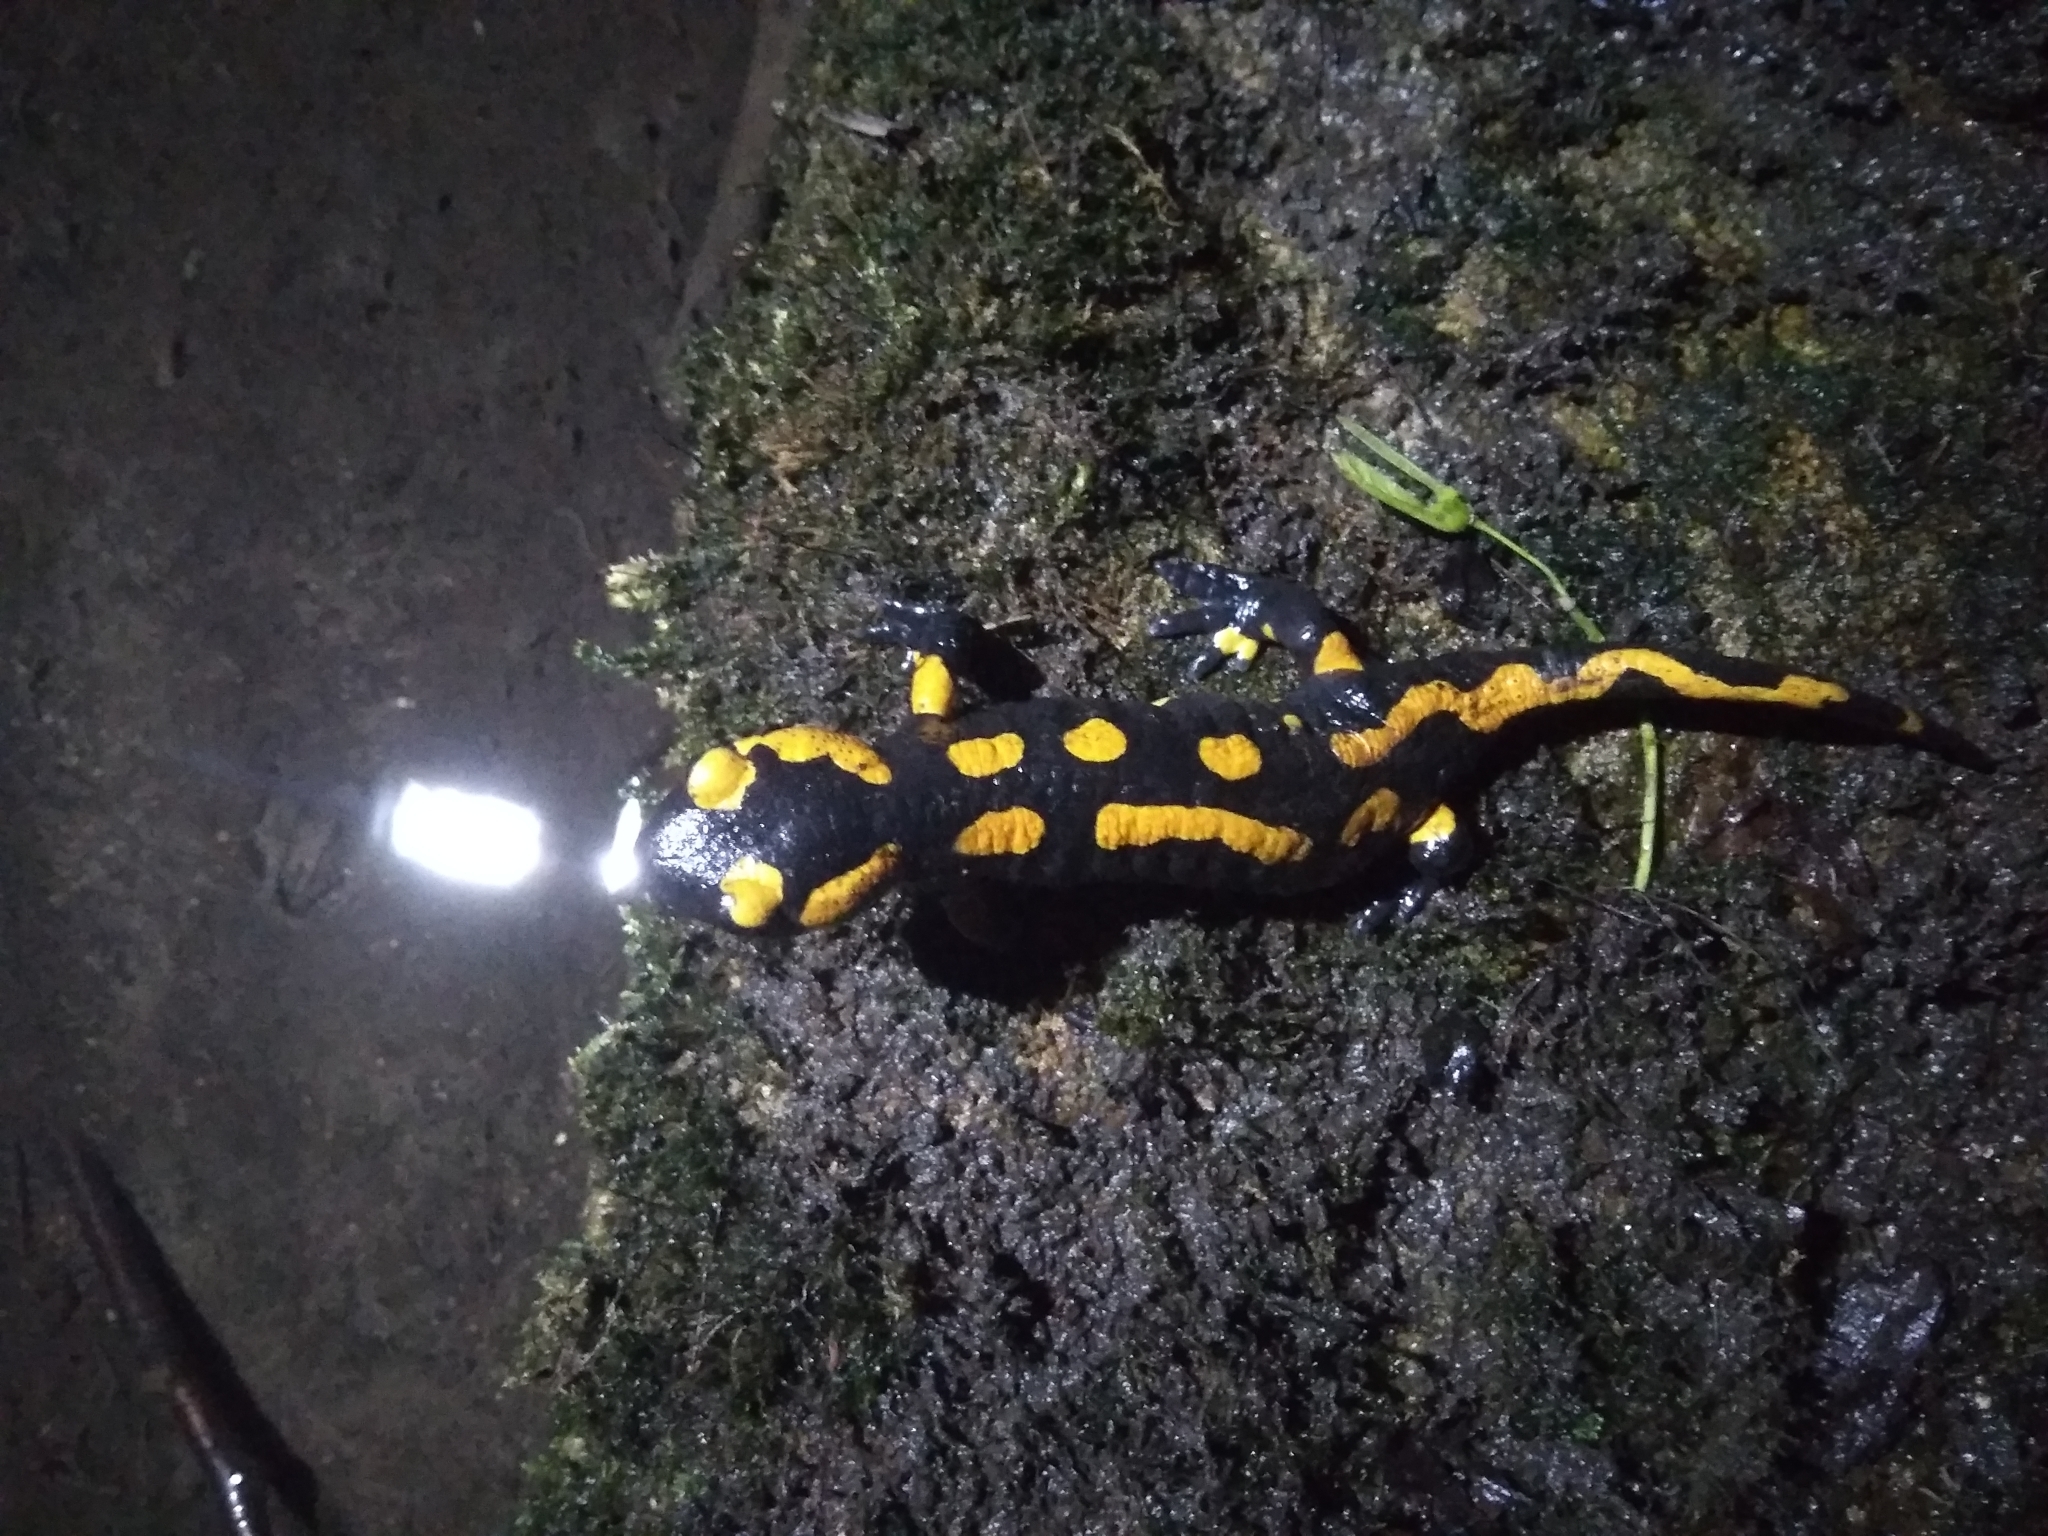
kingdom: Animalia
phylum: Chordata
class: Amphibia
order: Caudata
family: Salamandridae
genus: Salamandra
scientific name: Salamandra salamandra
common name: Fire salamander
